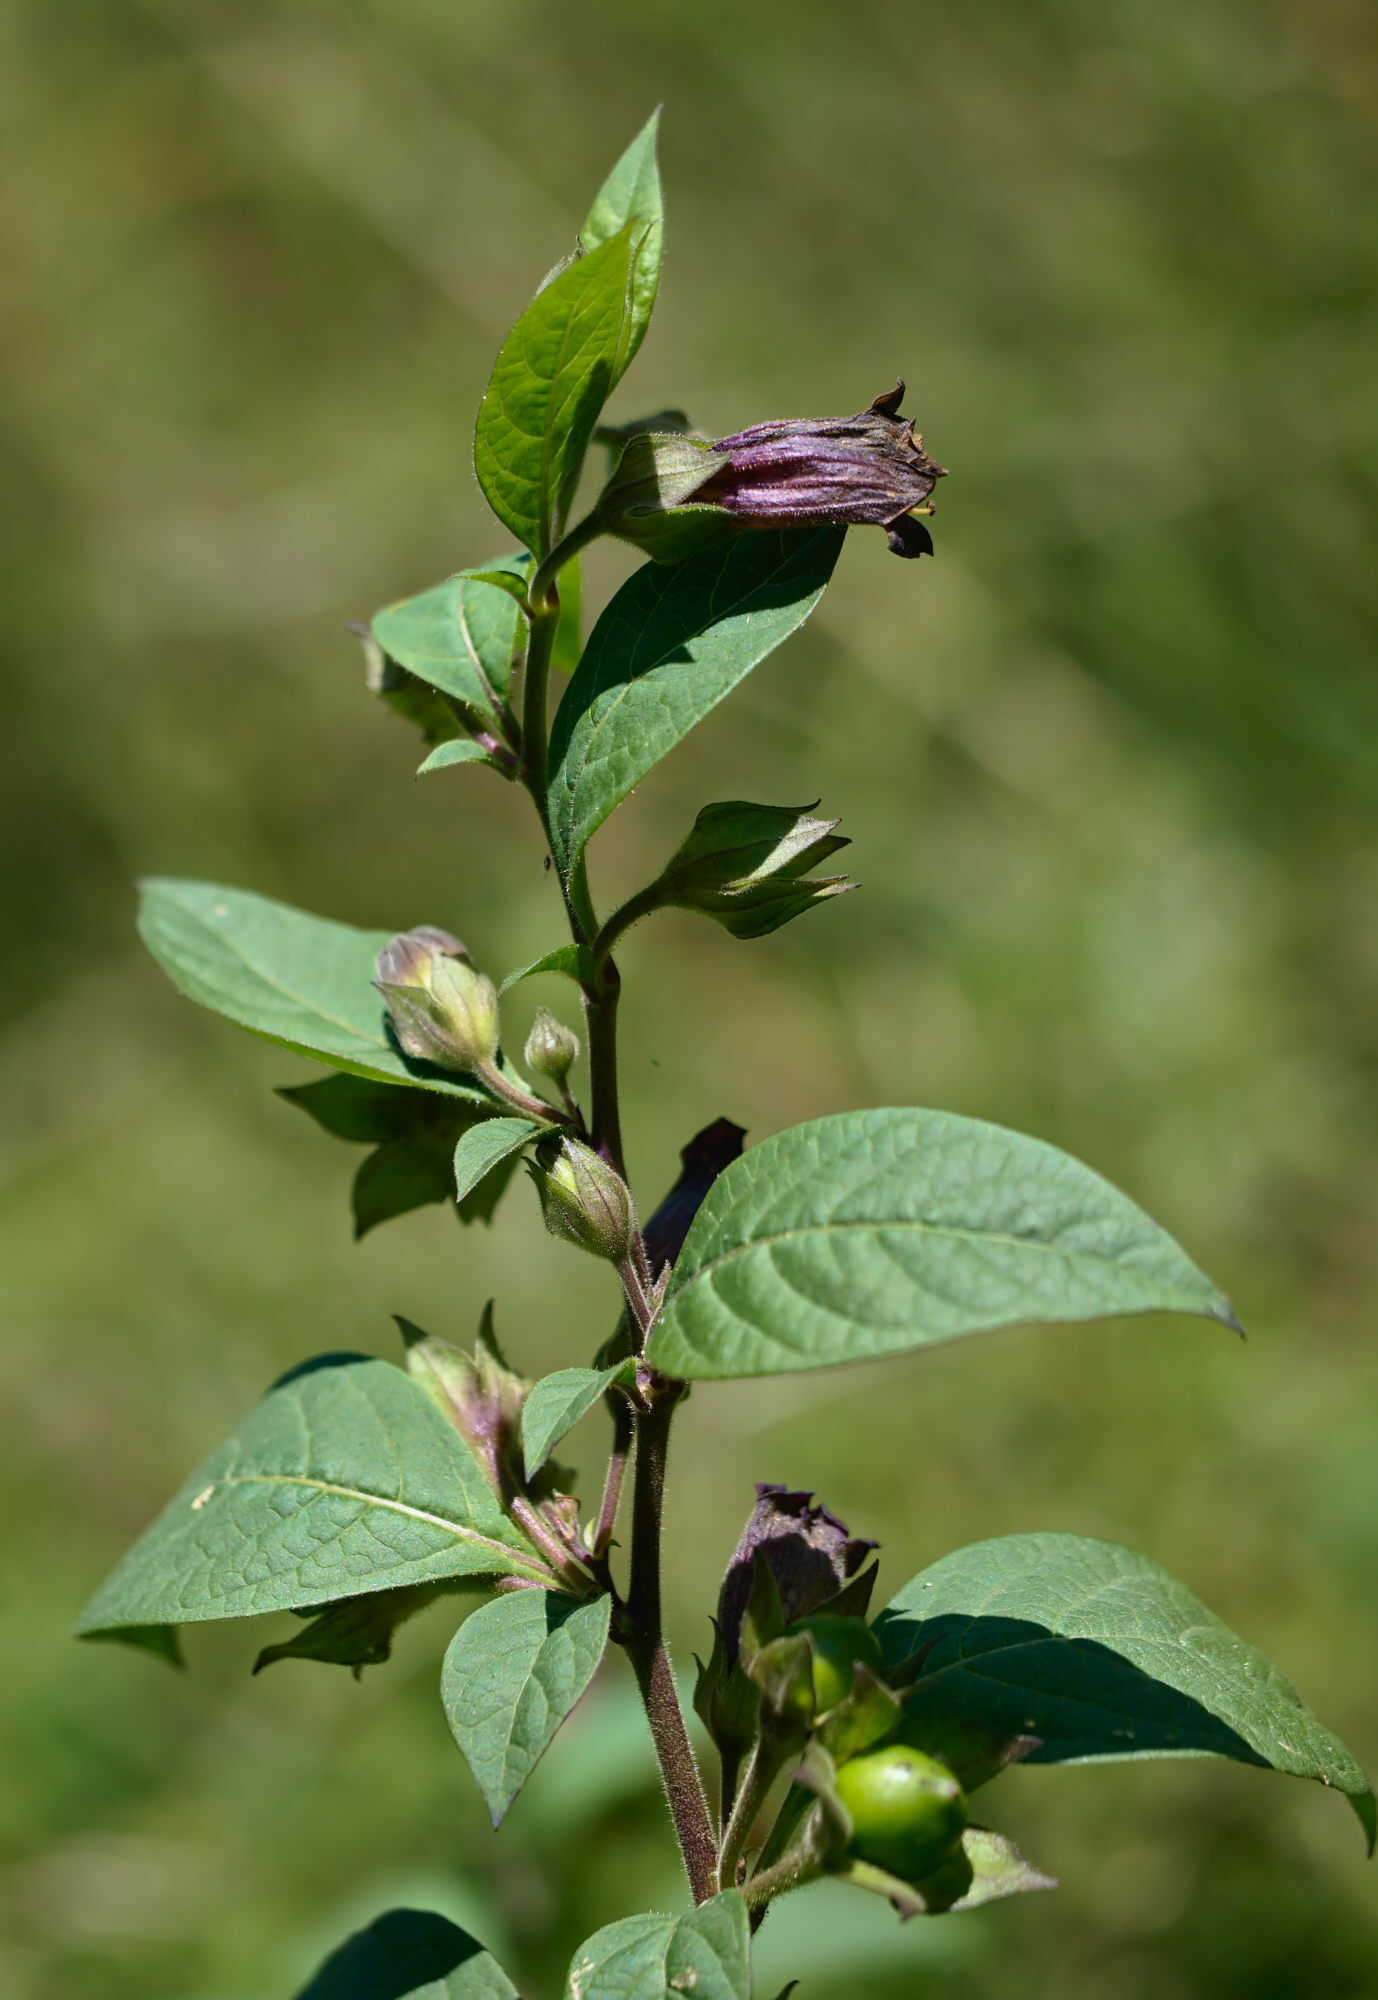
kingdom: Plantae
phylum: Tracheophyta
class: Magnoliopsida
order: Solanales
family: Solanaceae
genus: Atropa
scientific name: Atropa belladonna
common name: Deadly nightshade
